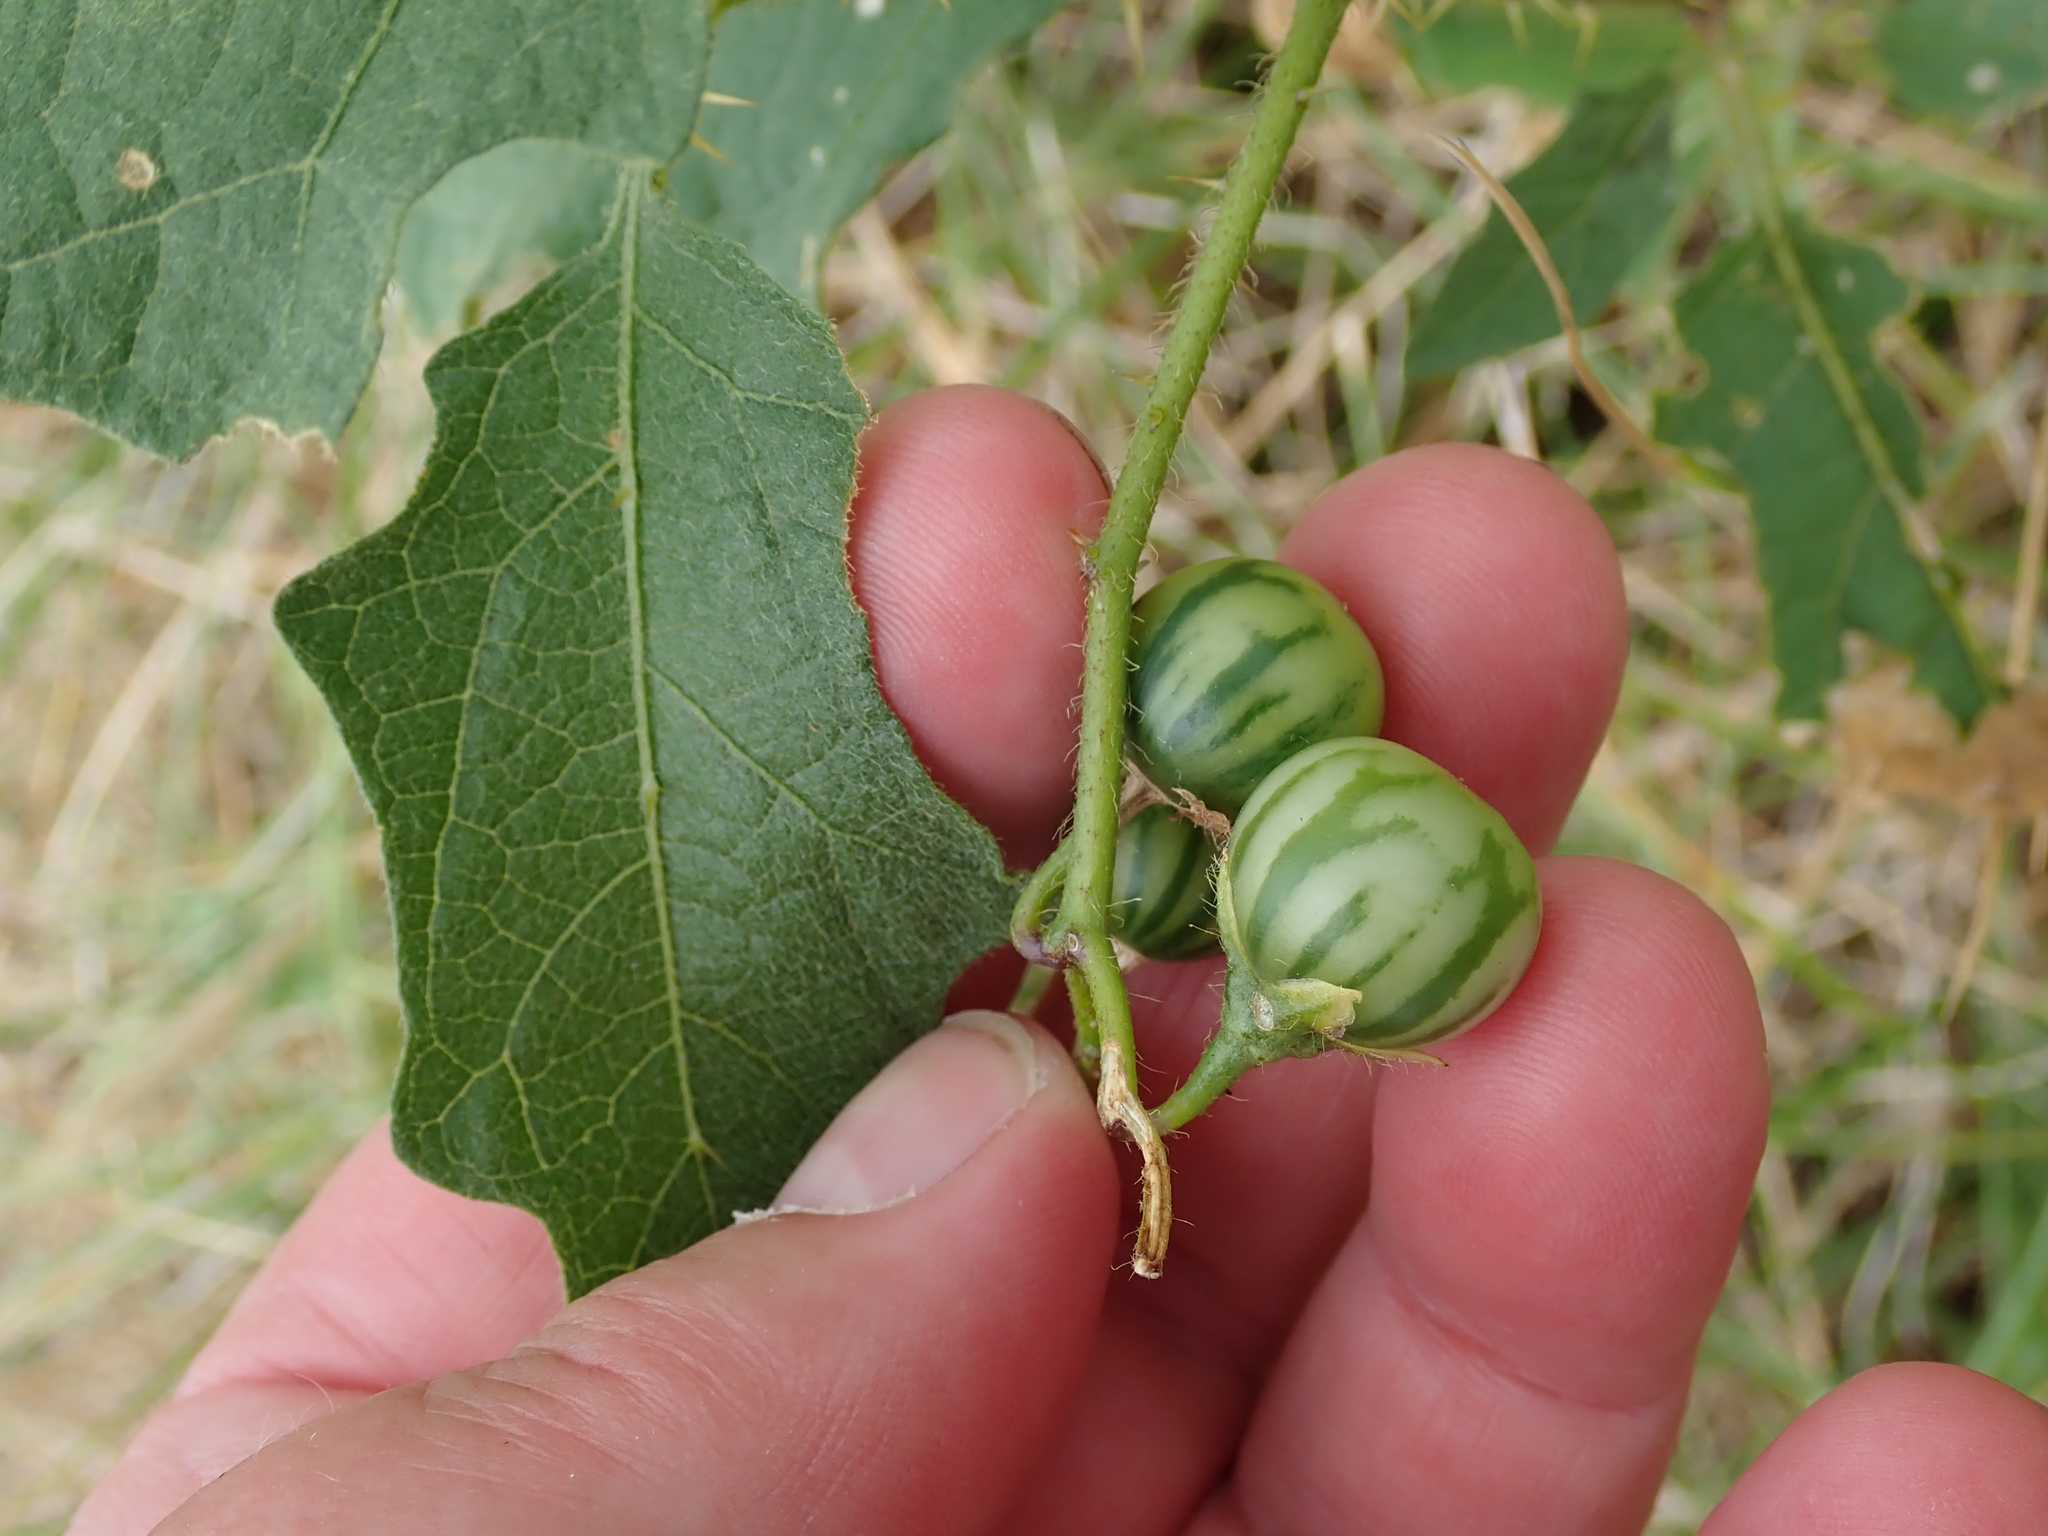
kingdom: Plantae
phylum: Tracheophyta
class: Magnoliopsida
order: Solanales
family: Solanaceae
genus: Solanum
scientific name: Solanum carolinense
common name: Horse-nettle
